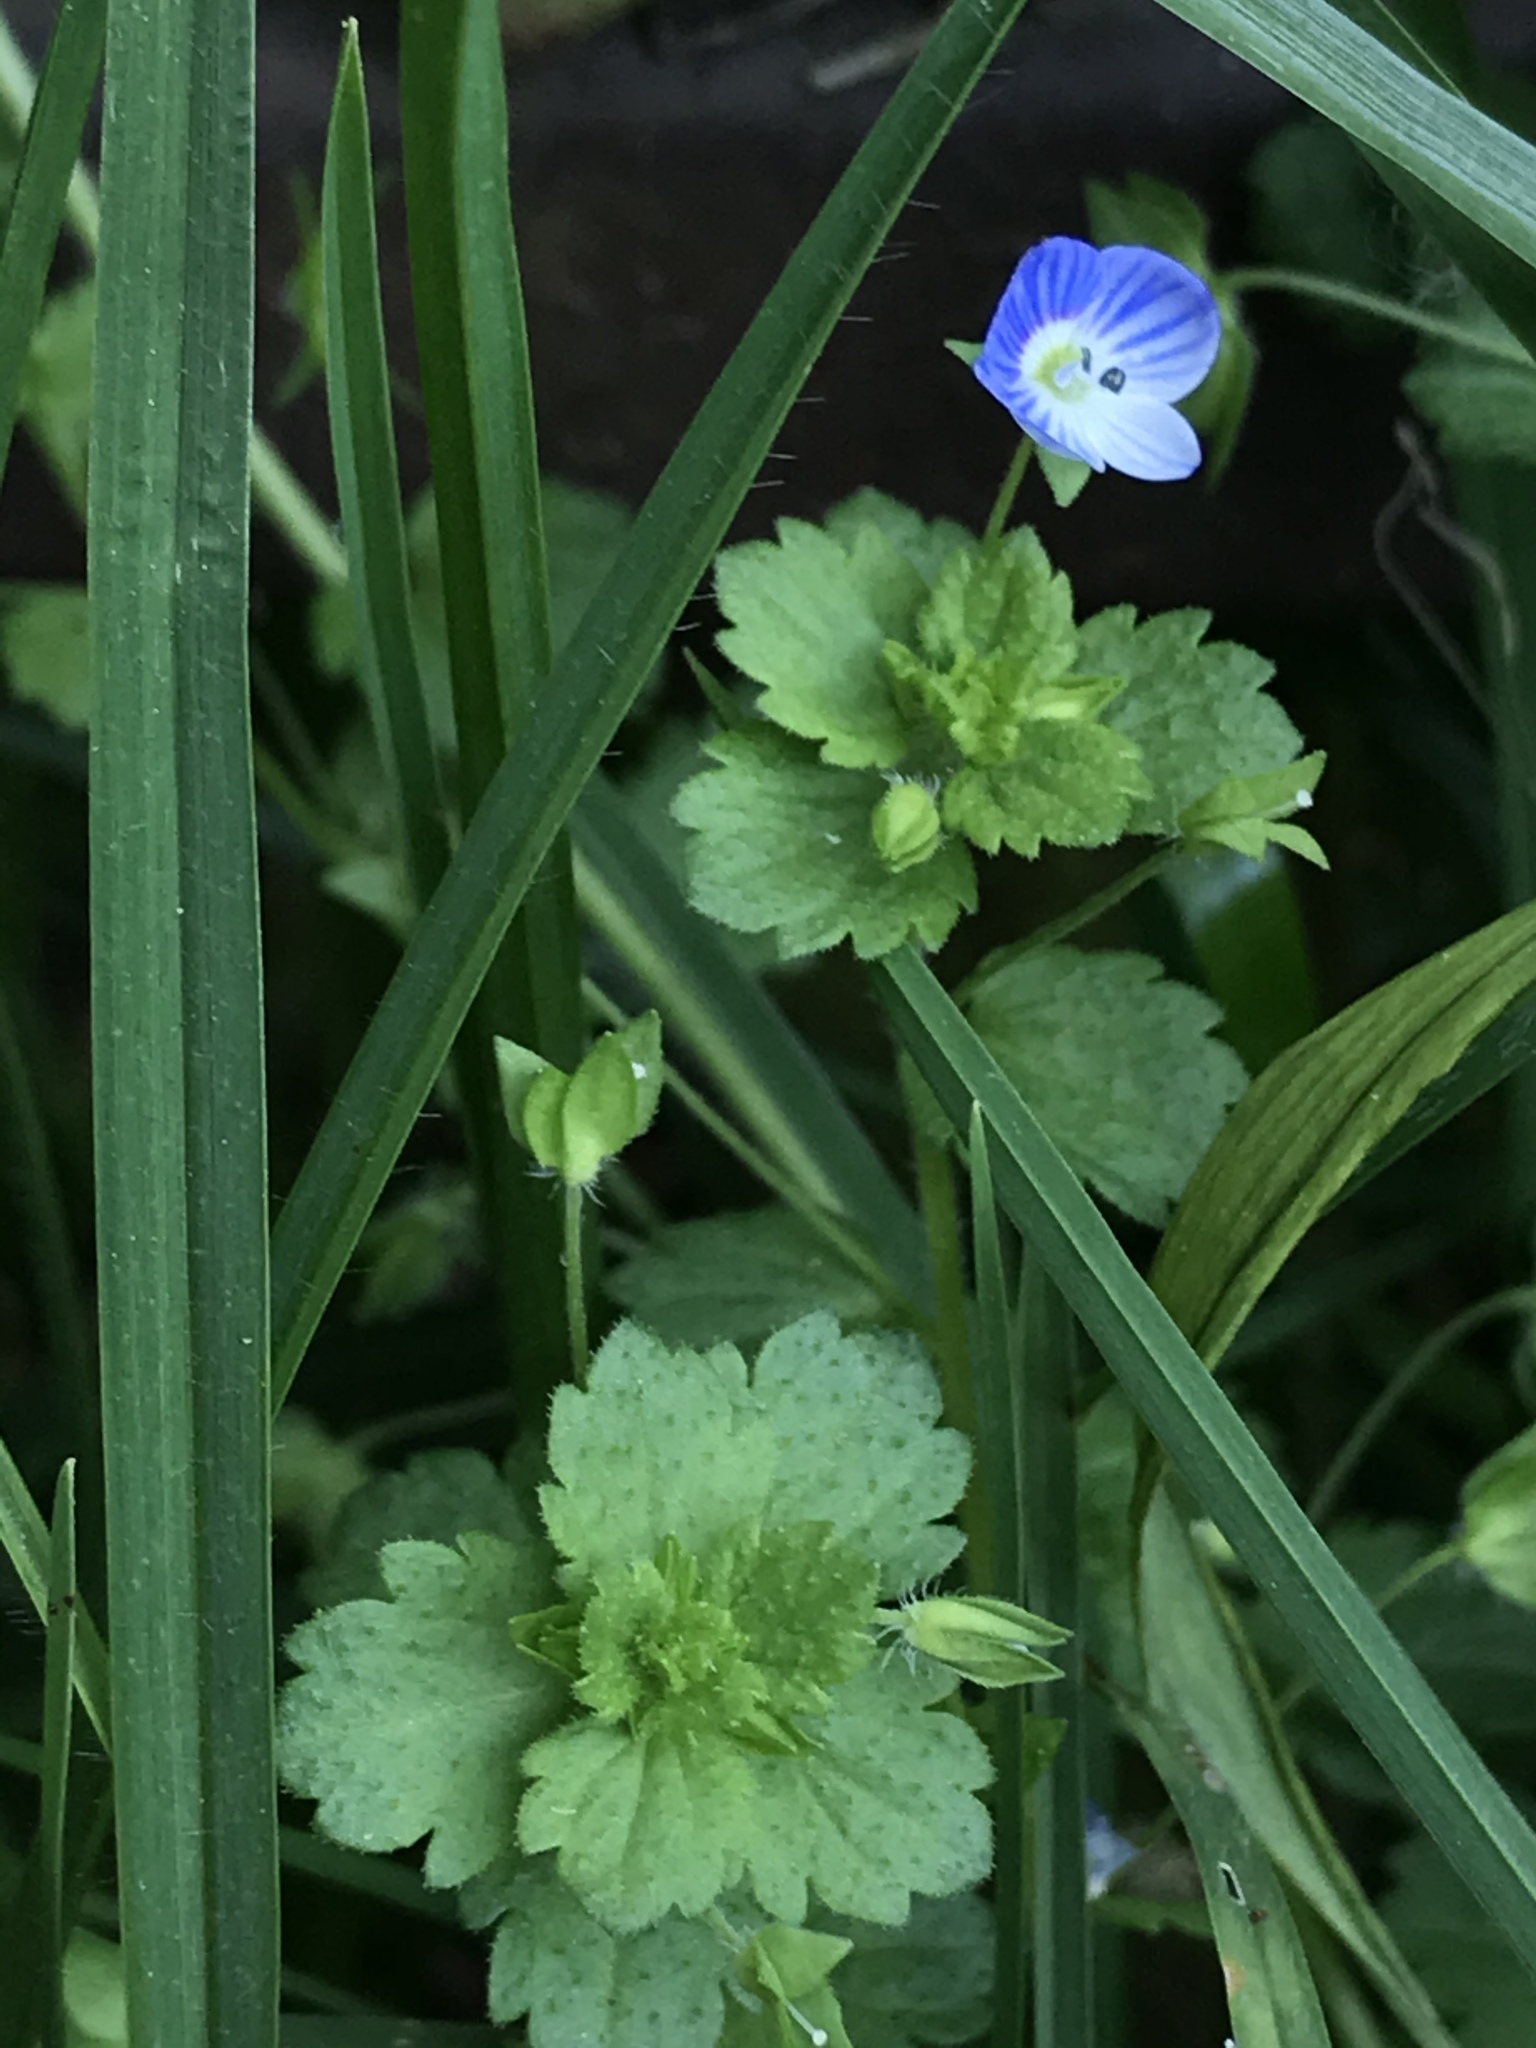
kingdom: Plantae
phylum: Tracheophyta
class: Magnoliopsida
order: Lamiales
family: Plantaginaceae
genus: Veronica
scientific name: Veronica persica
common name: Common field-speedwell
